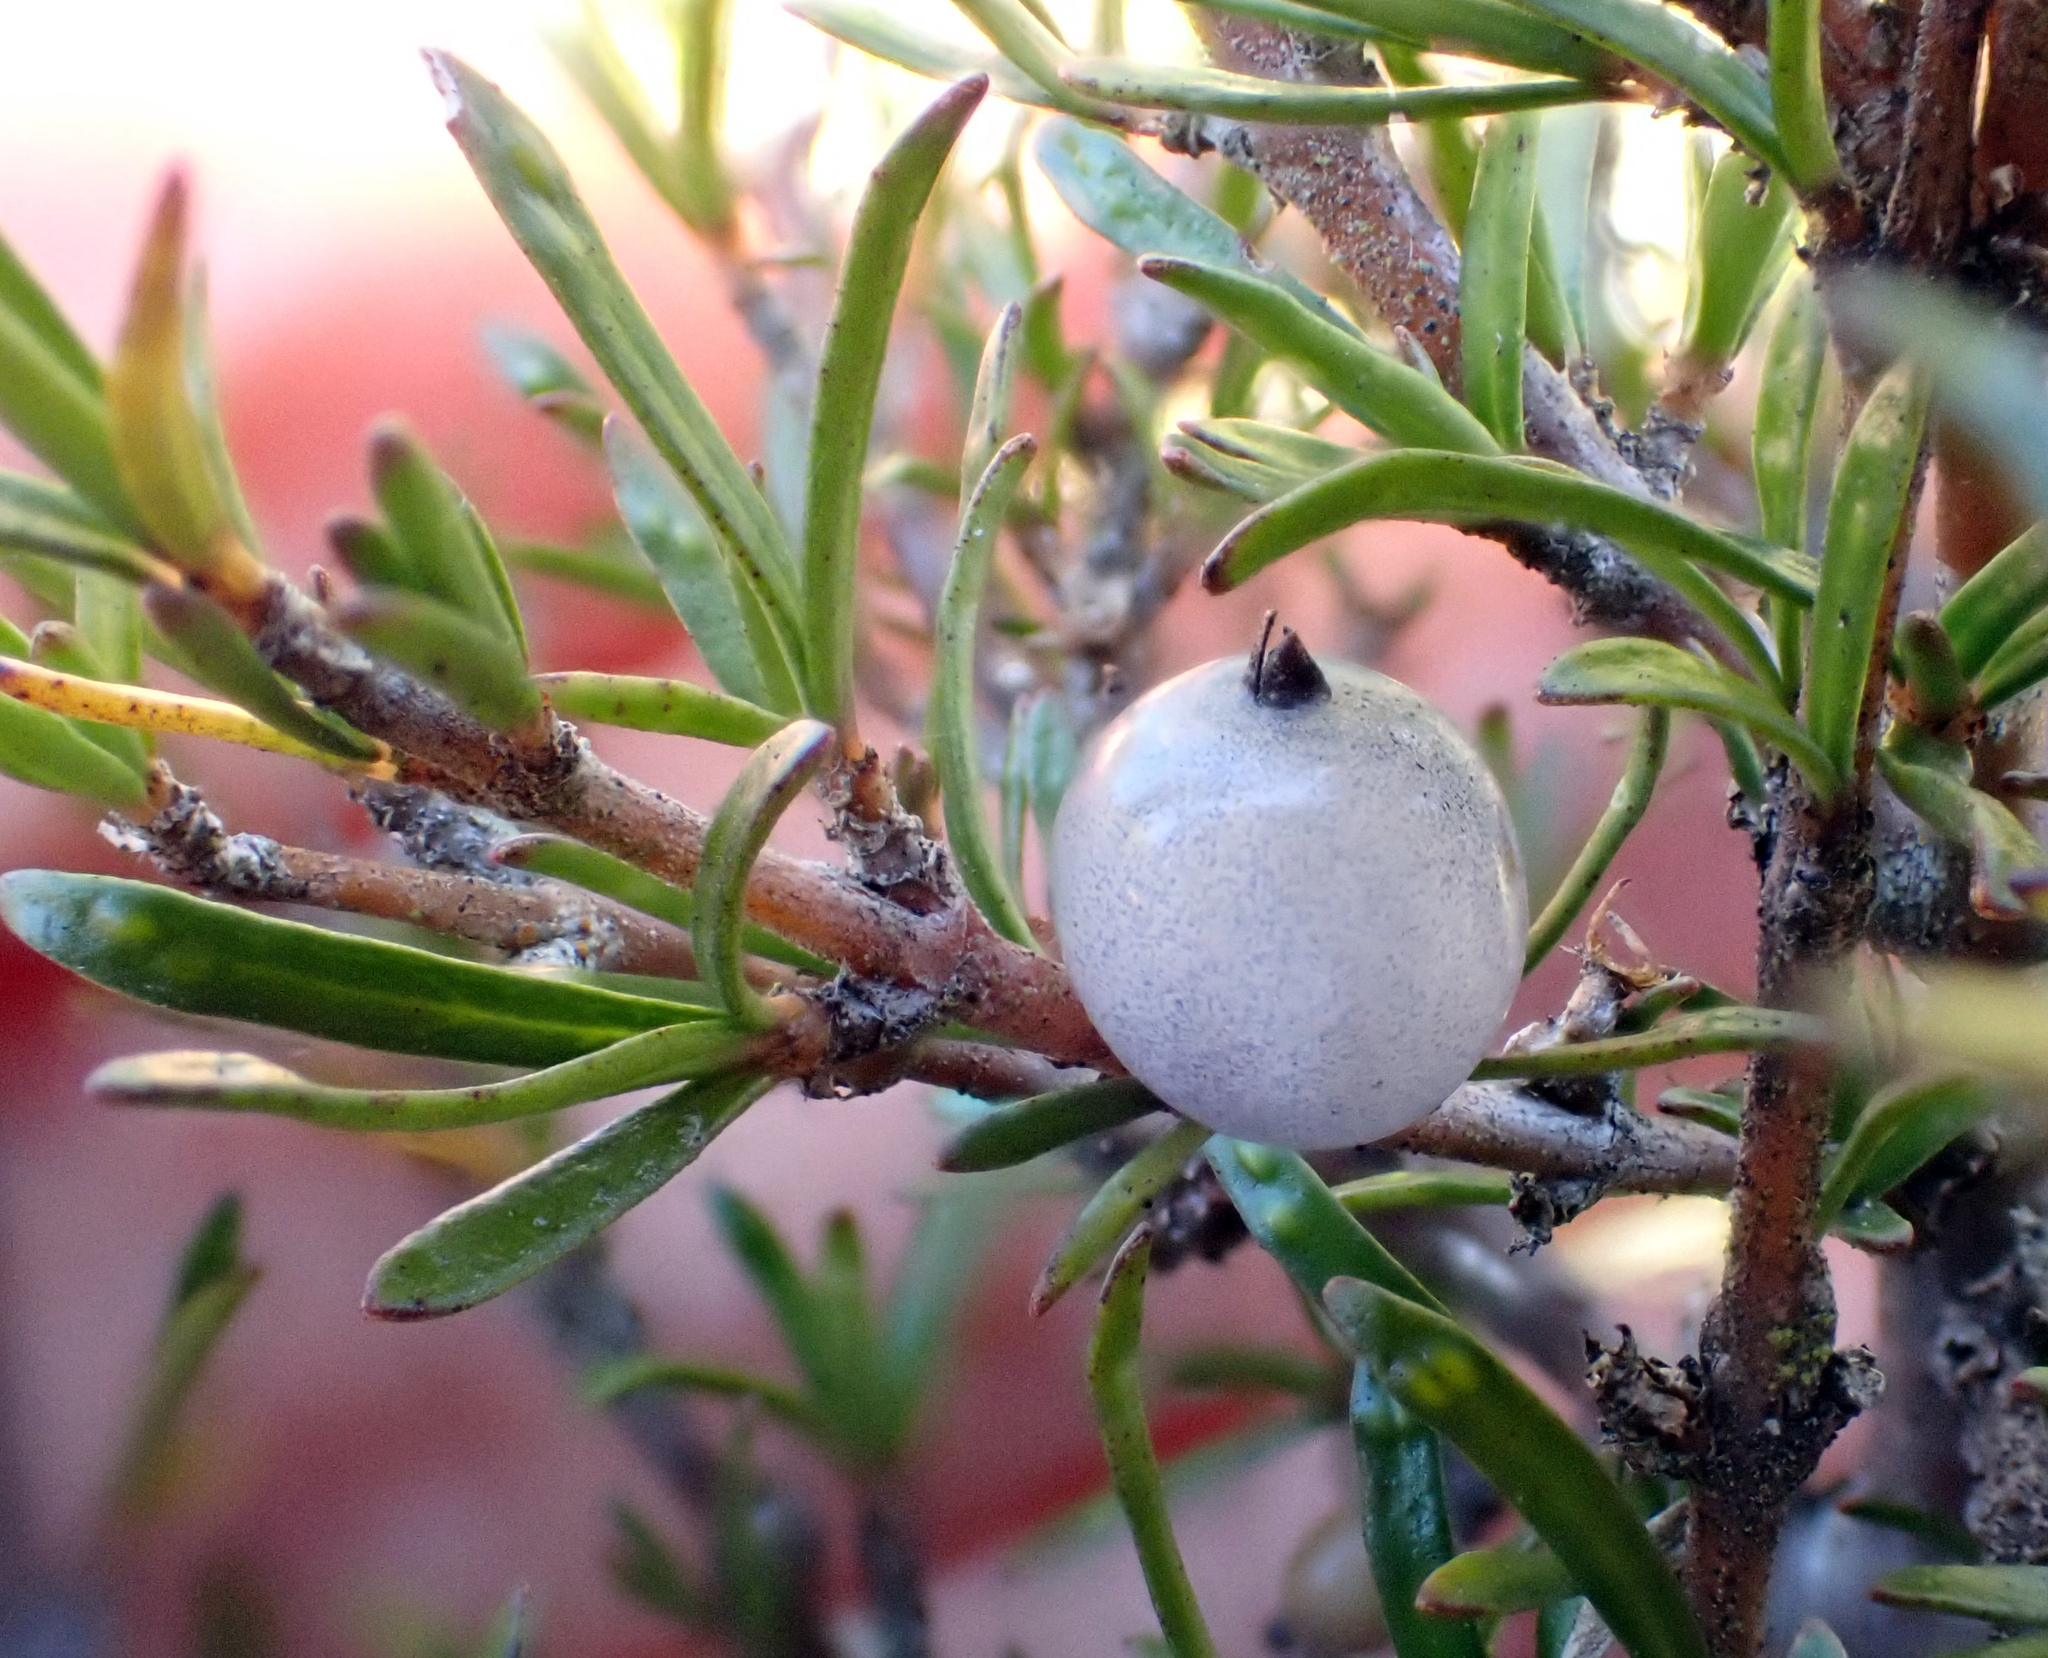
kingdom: Plantae
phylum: Tracheophyta
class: Magnoliopsida
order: Gentianales
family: Rubiaceae
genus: Coprosma
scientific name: Coprosma rugosa
